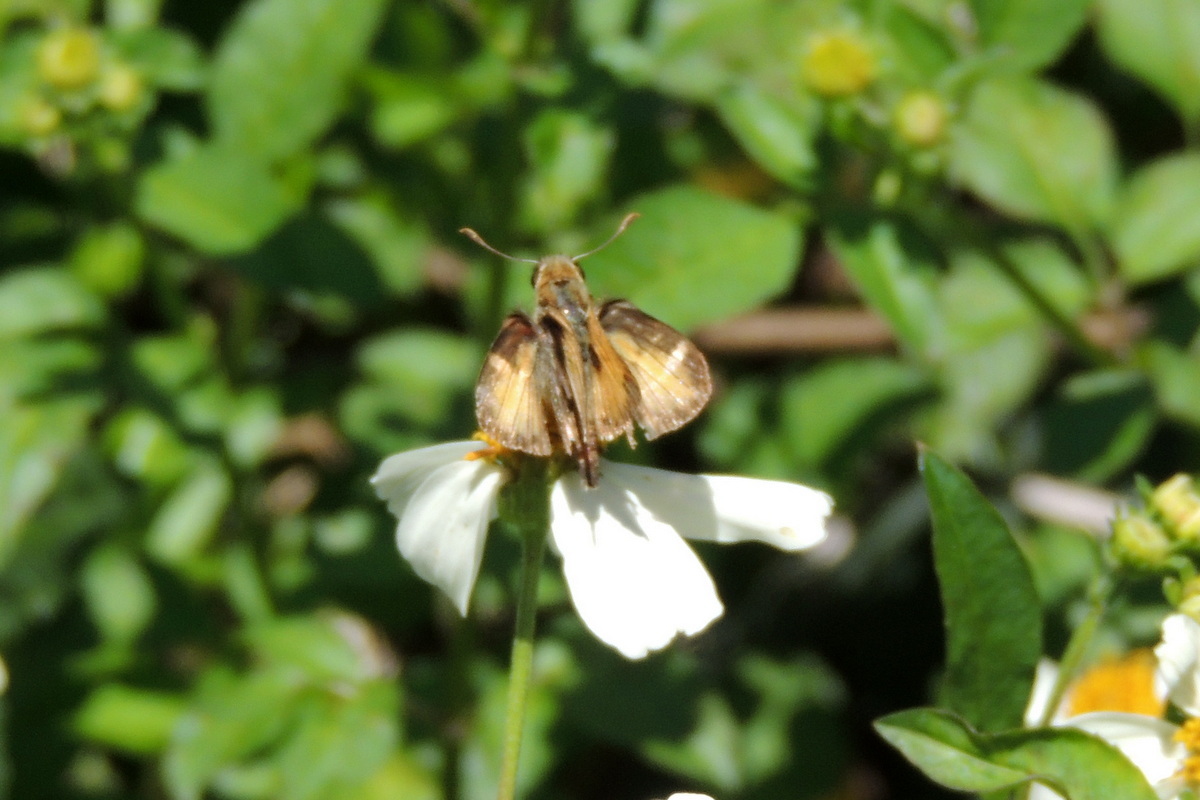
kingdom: Animalia
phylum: Arthropoda
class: Insecta
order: Lepidoptera
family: Hesperiidae
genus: Polites
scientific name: Polites vibex
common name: Whirlabout
